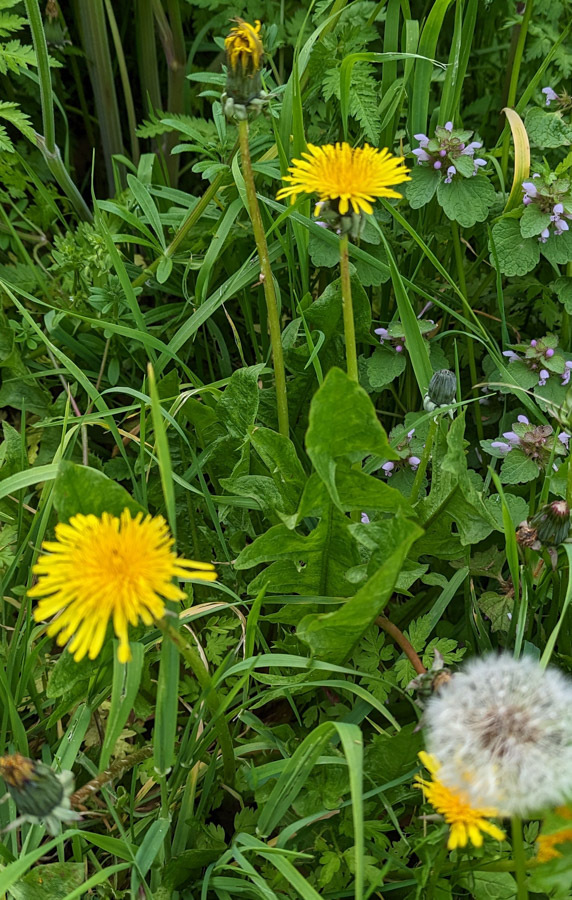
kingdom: Plantae
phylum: Tracheophyta
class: Magnoliopsida
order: Asterales
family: Asteraceae
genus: Taraxacum
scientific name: Taraxacum officinale
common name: Common dandelion
